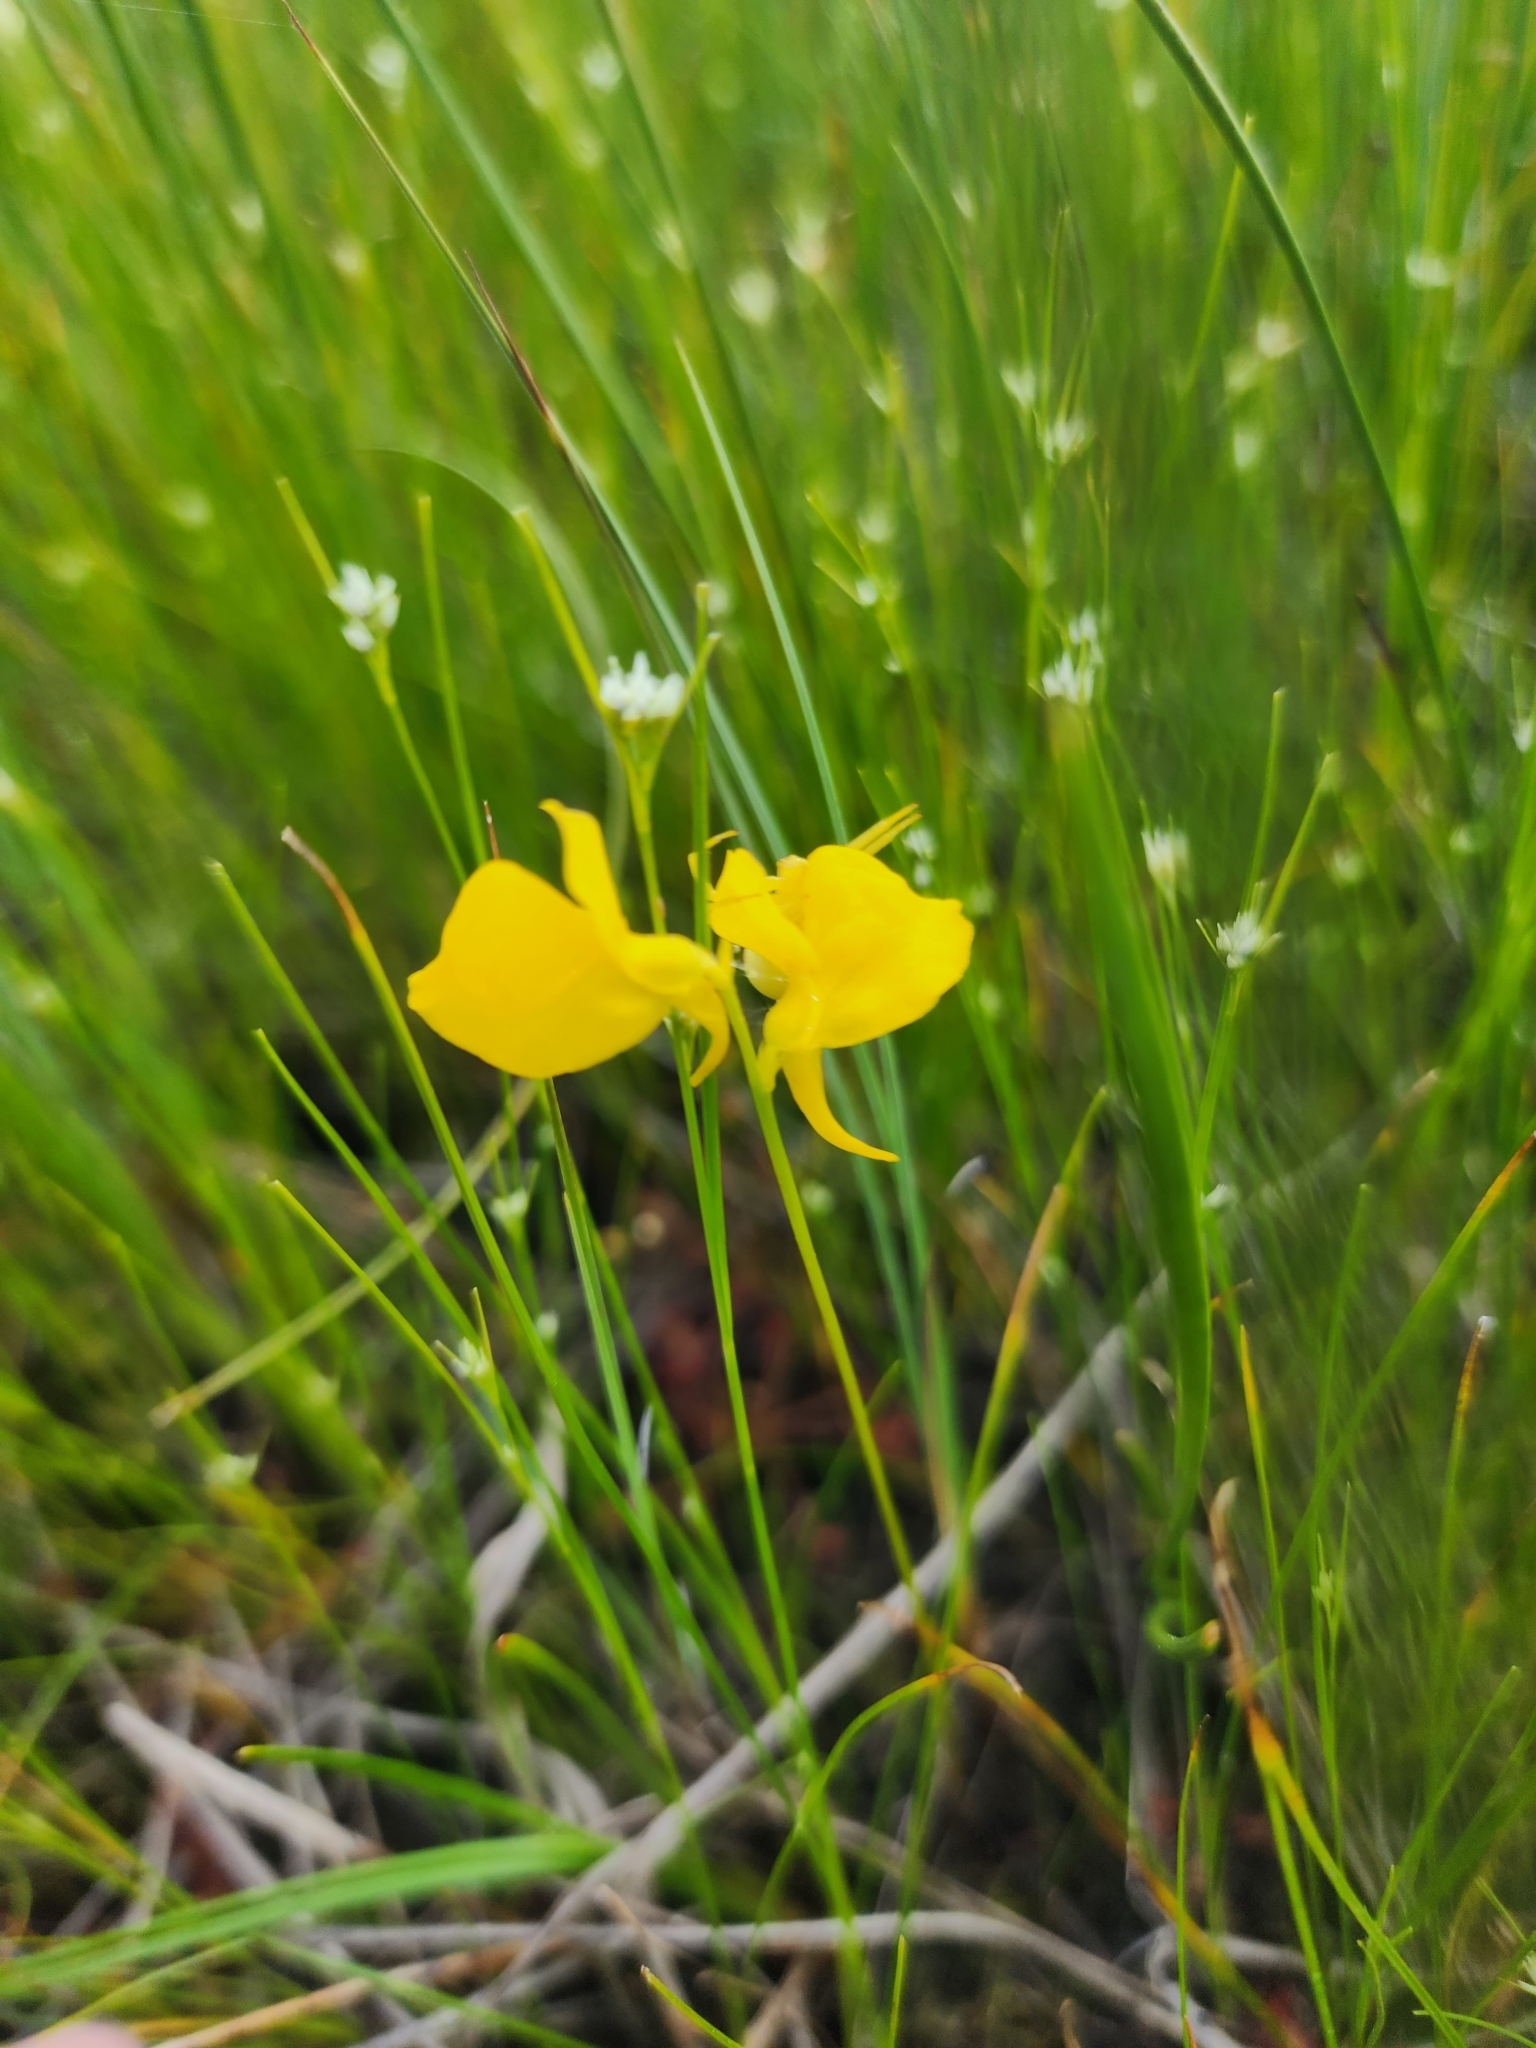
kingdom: Plantae
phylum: Tracheophyta
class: Magnoliopsida
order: Lamiales
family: Lentibulariaceae
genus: Utricularia
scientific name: Utricularia cornuta
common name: Horned bladderwort
